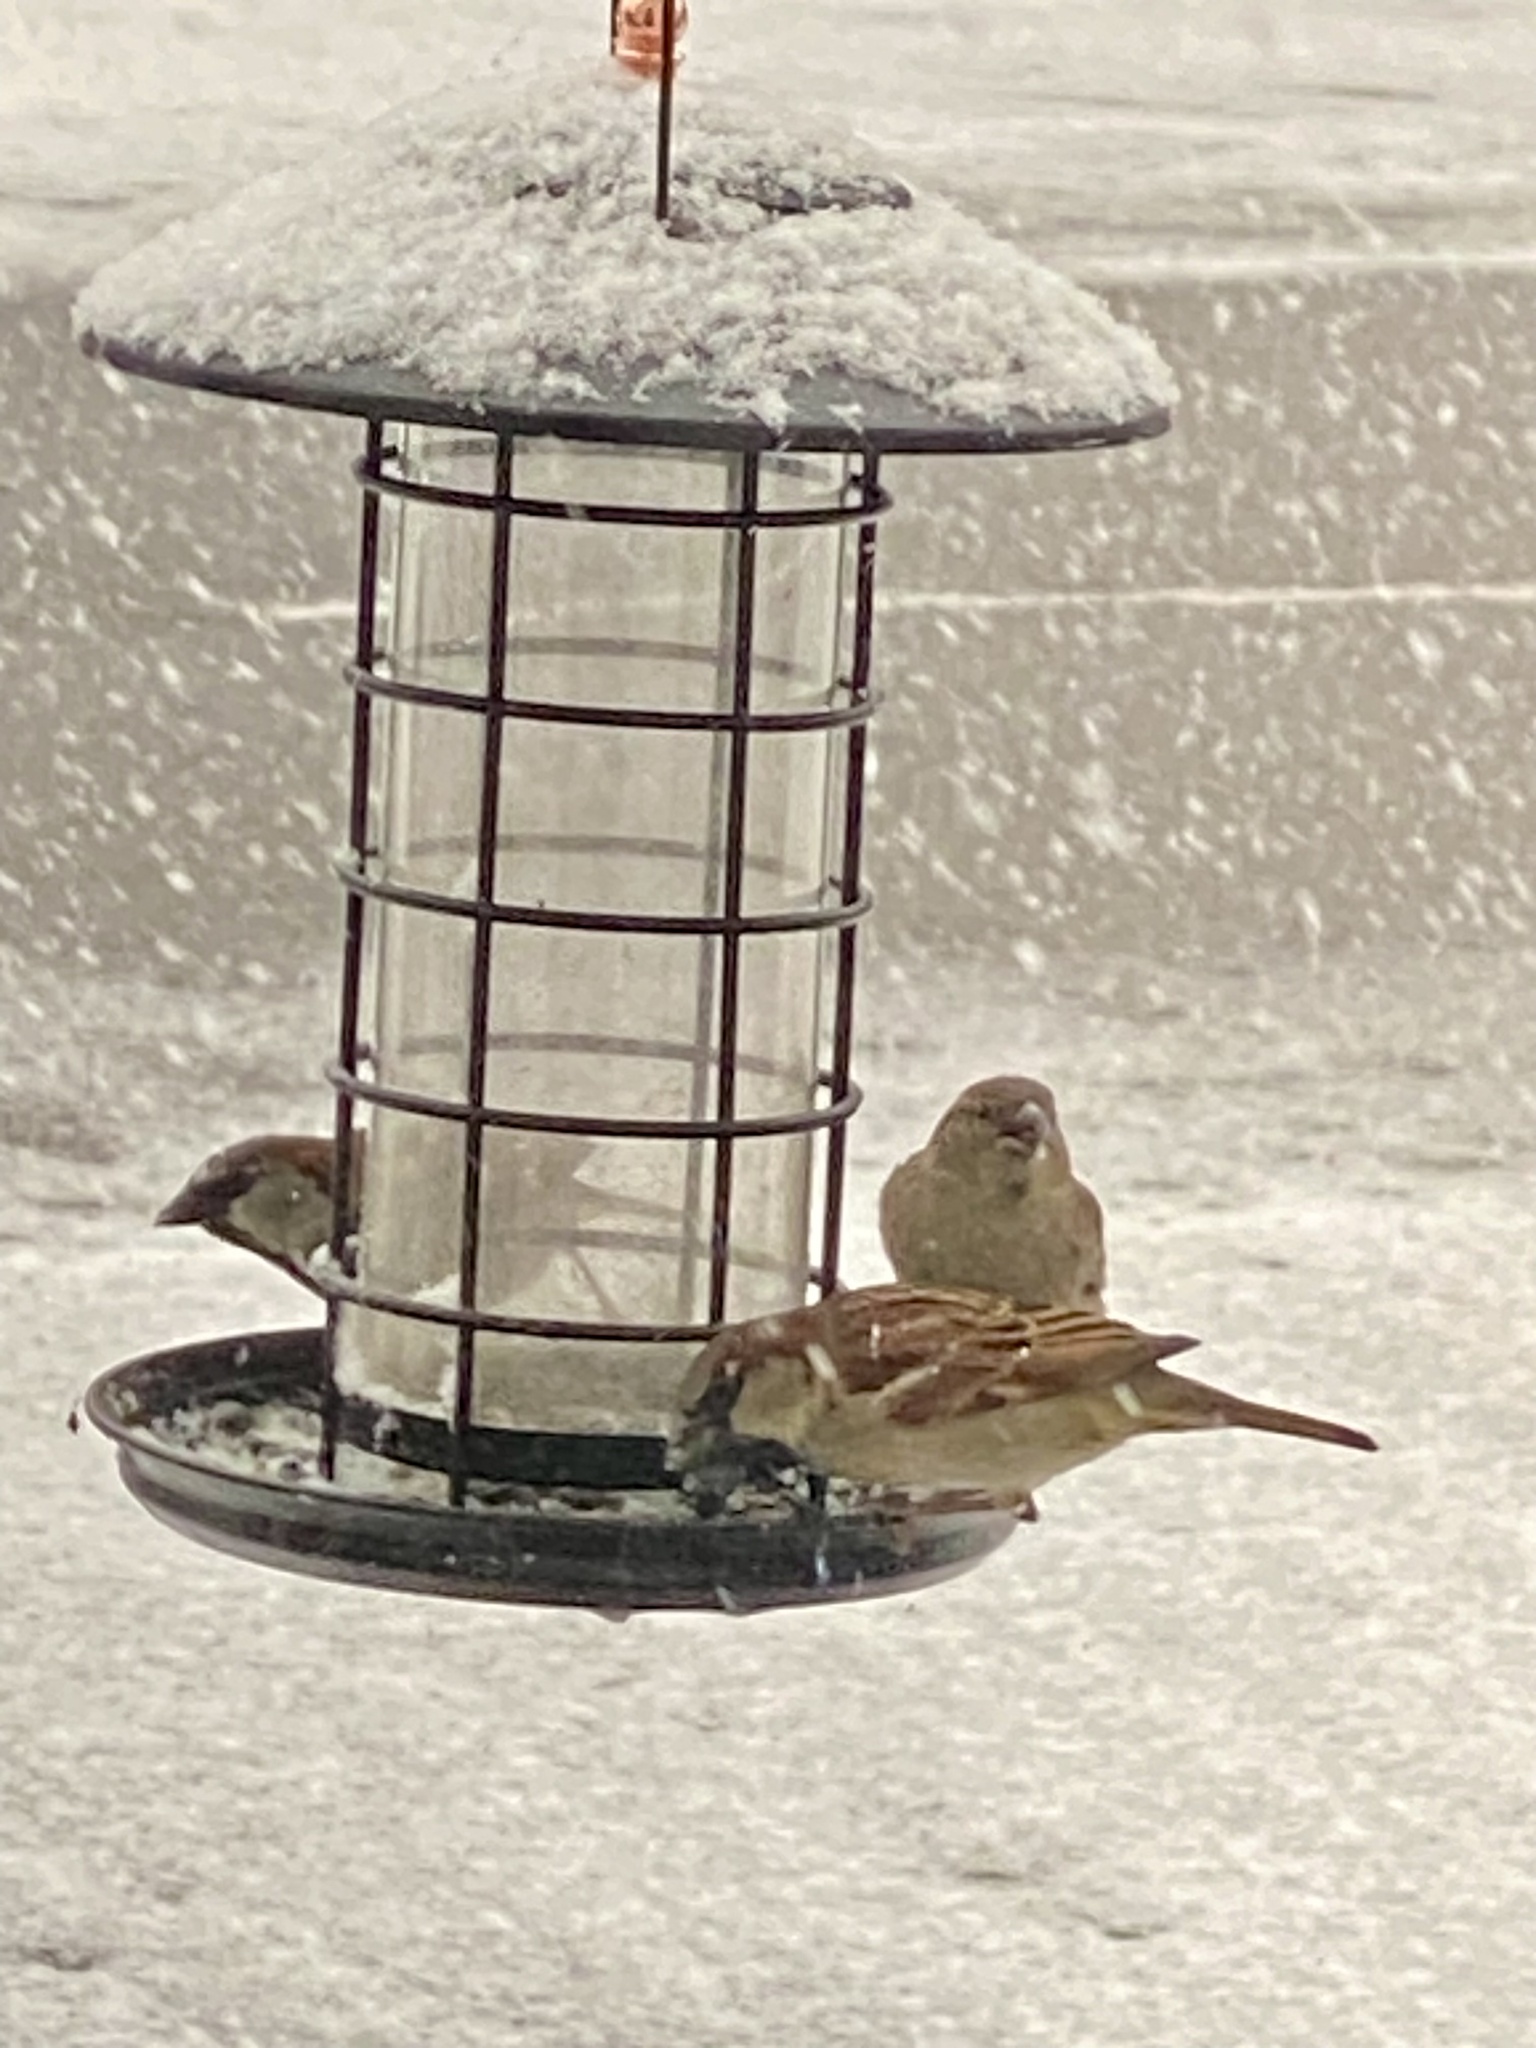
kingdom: Animalia
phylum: Chordata
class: Aves
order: Passeriformes
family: Passeridae
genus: Passer
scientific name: Passer domesticus
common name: House sparrow
